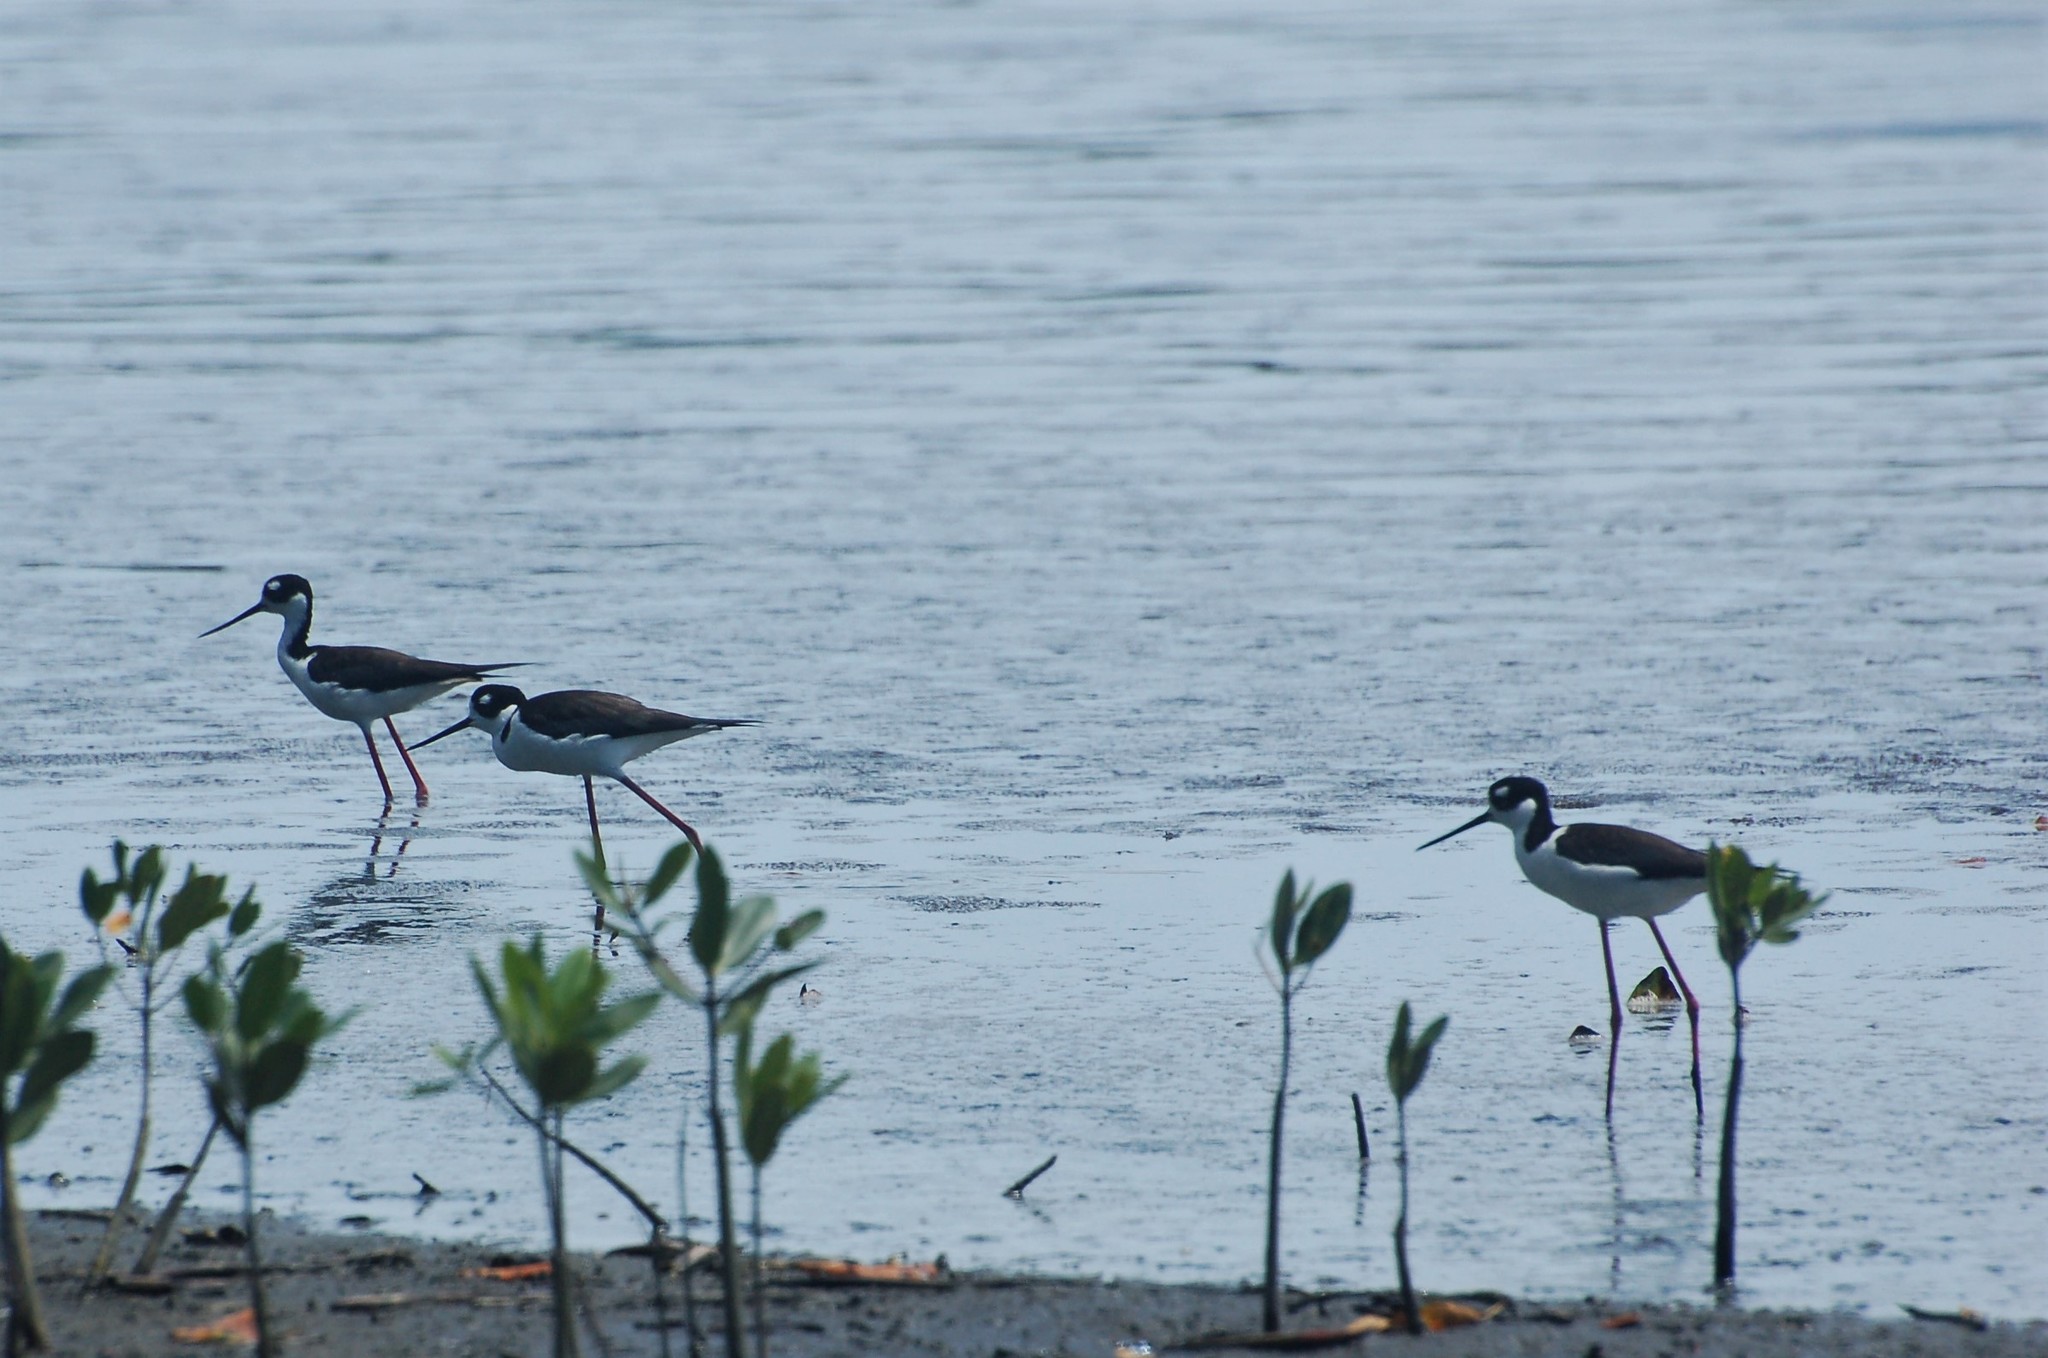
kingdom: Animalia
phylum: Chordata
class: Aves
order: Charadriiformes
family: Recurvirostridae
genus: Himantopus
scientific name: Himantopus mexicanus
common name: Black-necked stilt
